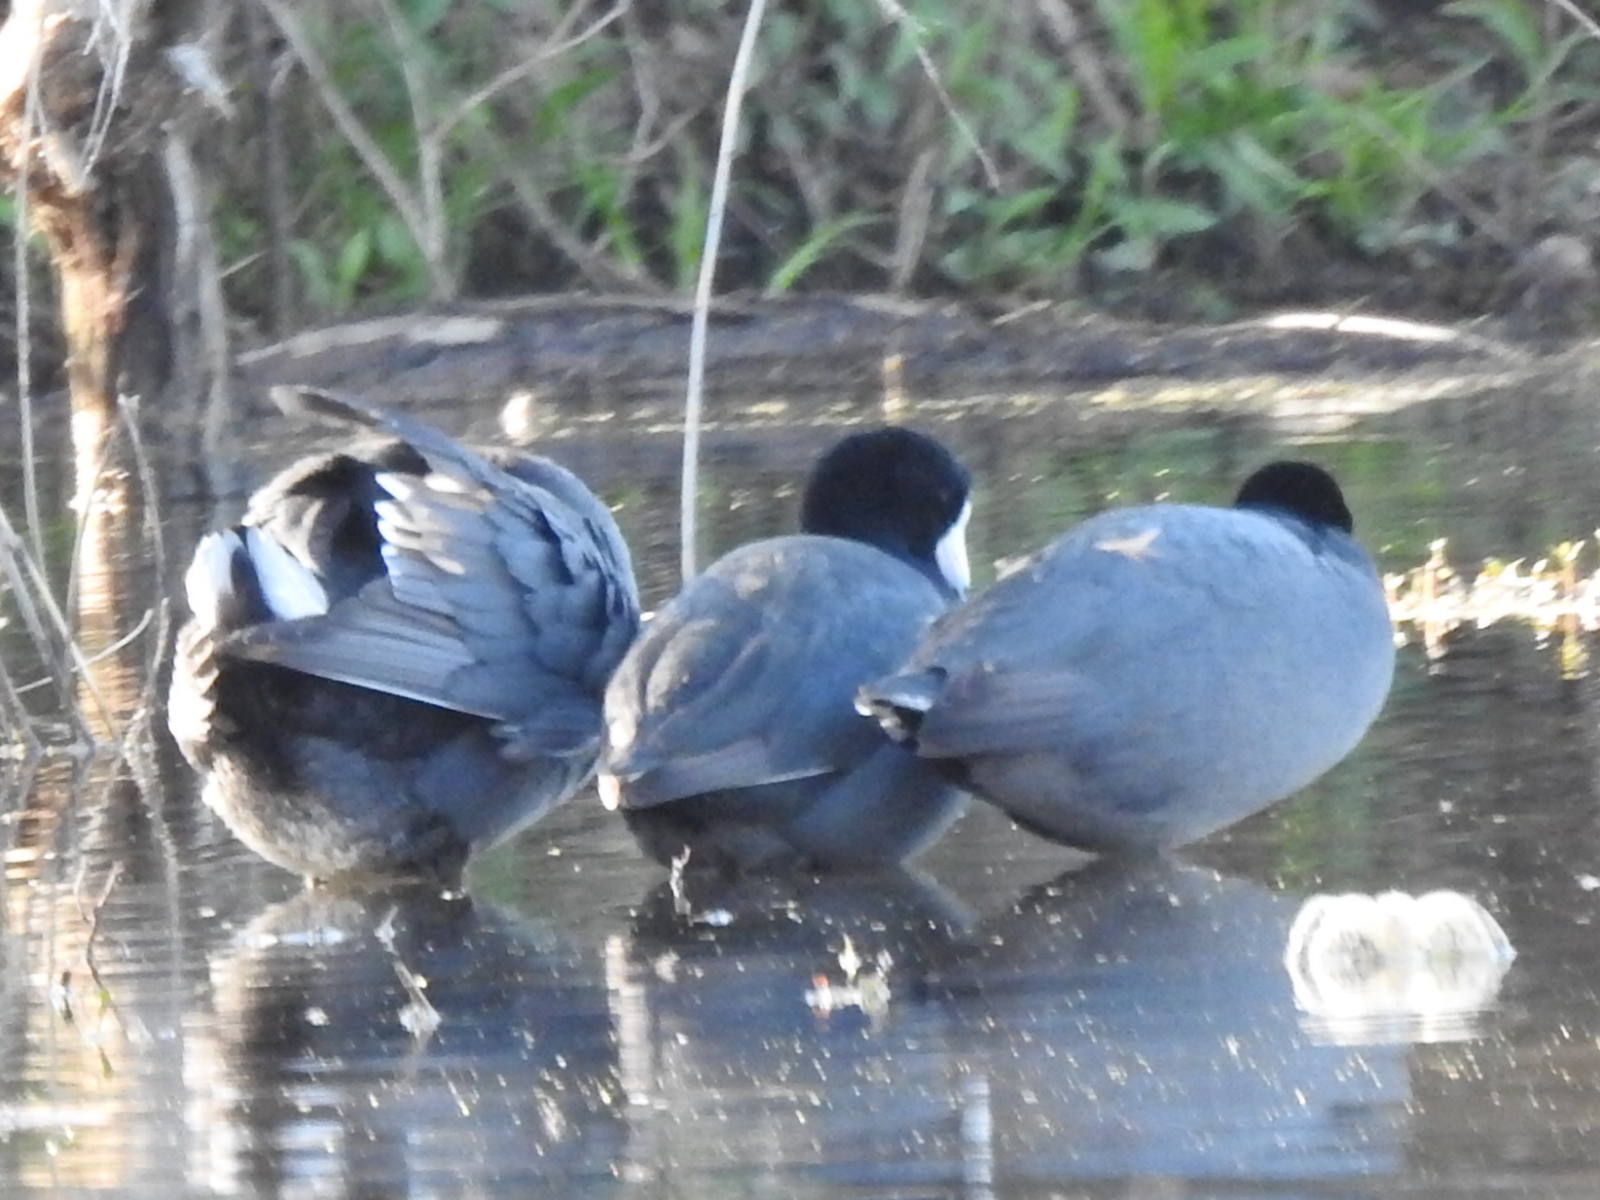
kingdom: Animalia
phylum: Chordata
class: Aves
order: Gruiformes
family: Rallidae
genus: Fulica
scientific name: Fulica americana
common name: American coot
